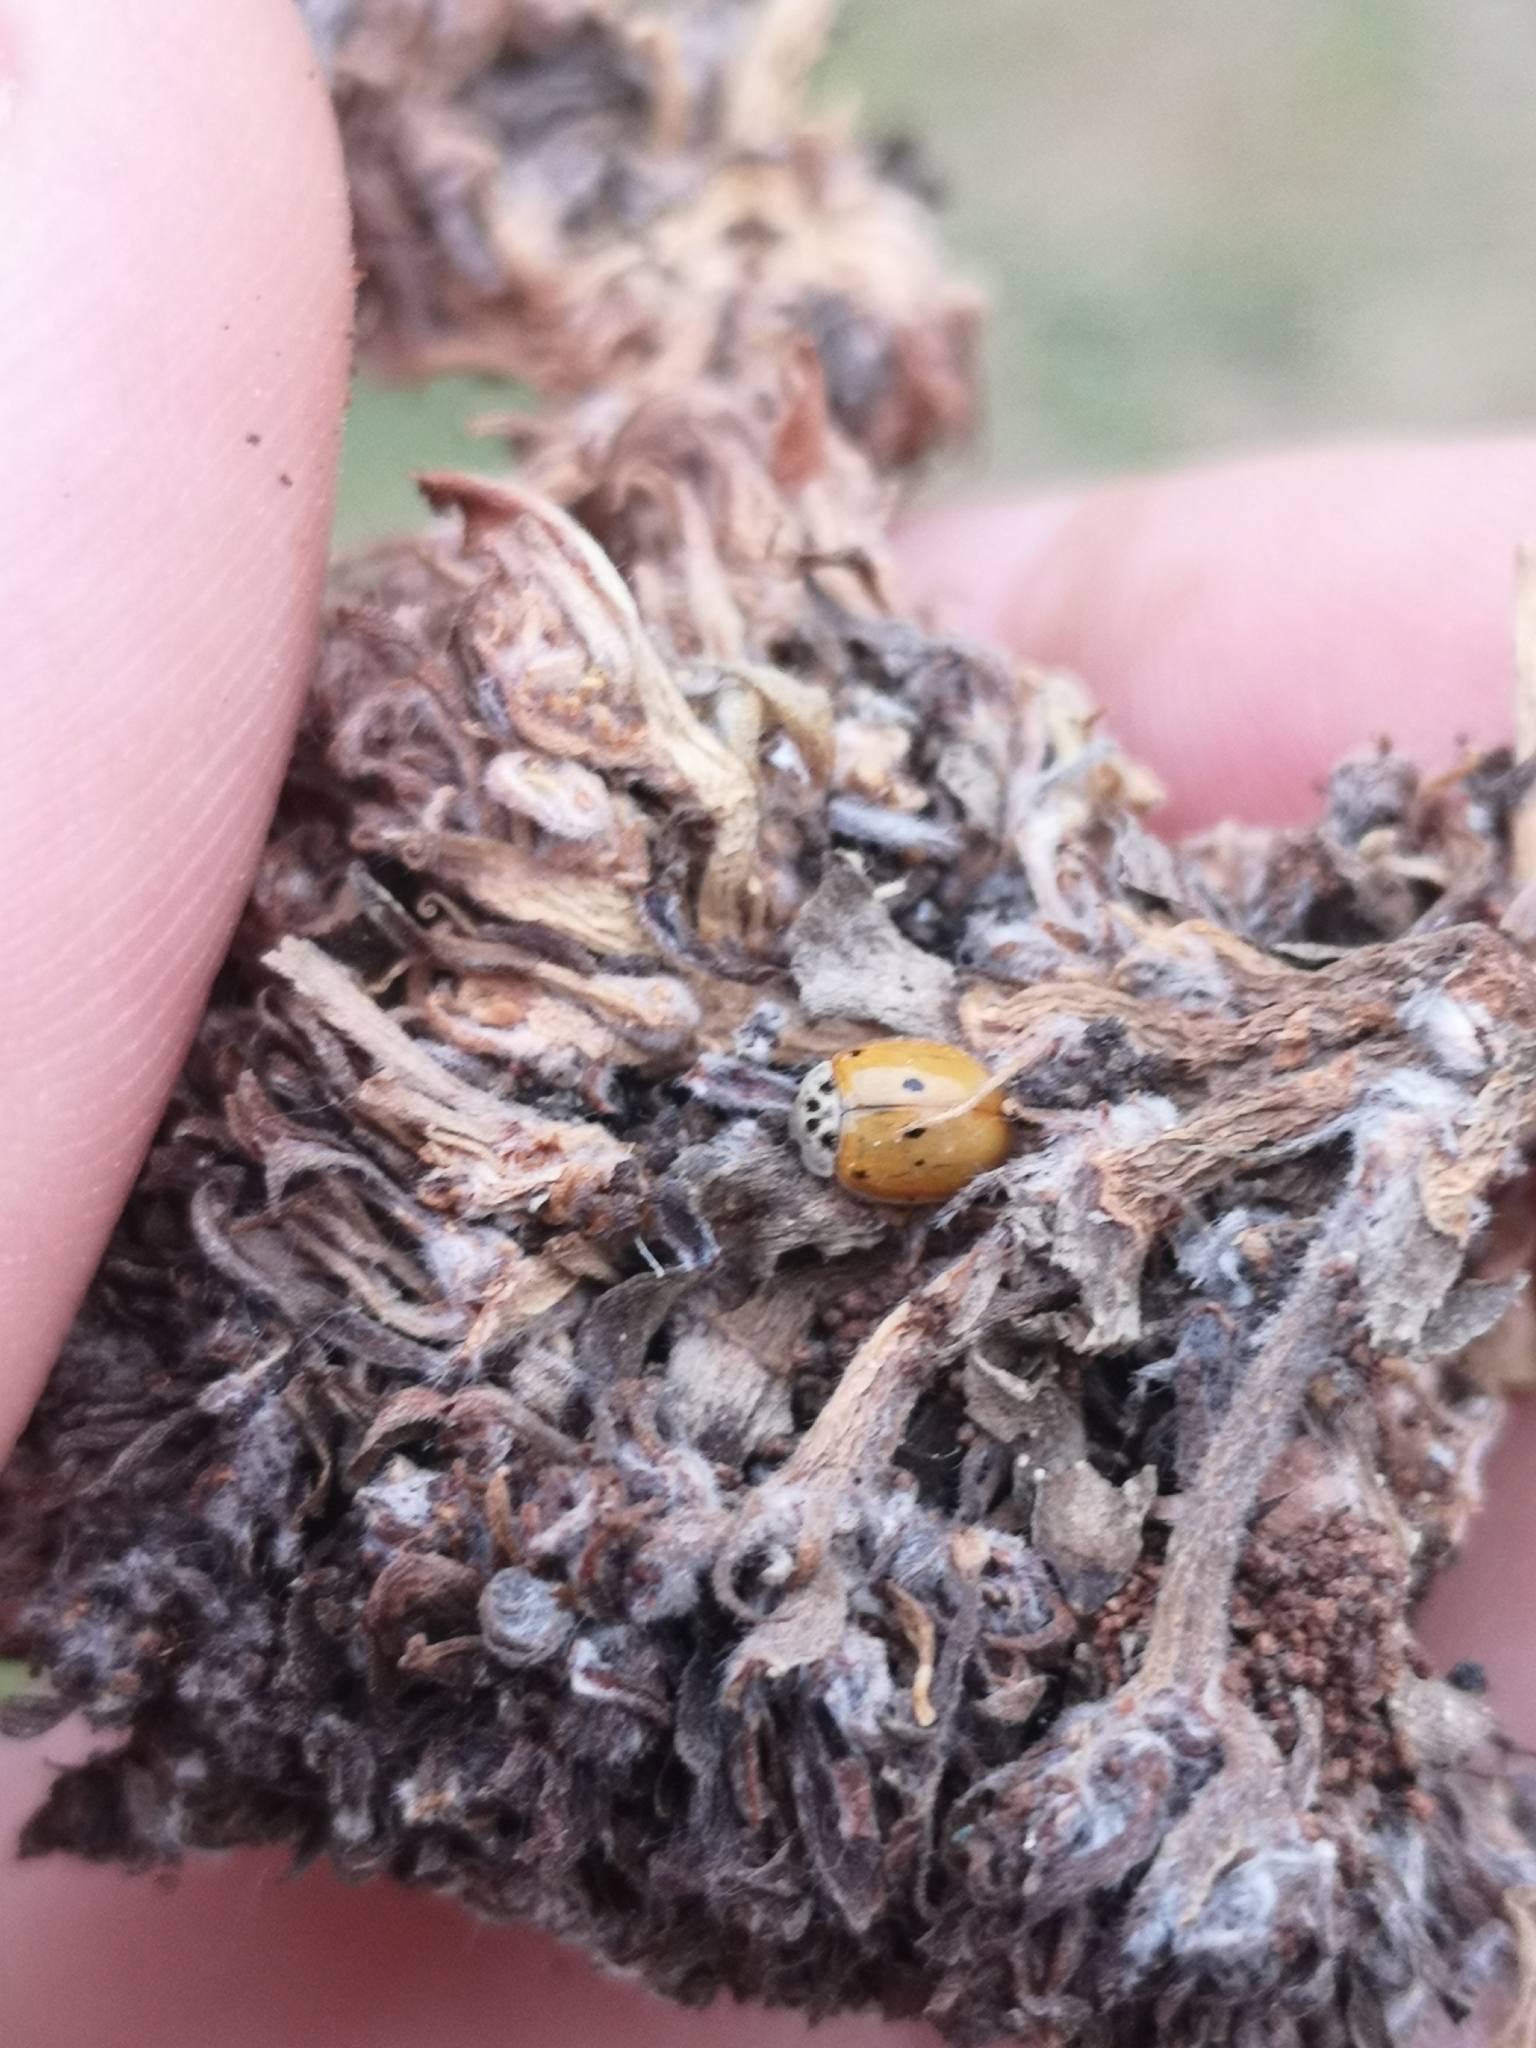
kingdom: Animalia
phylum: Arthropoda
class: Insecta
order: Coleoptera
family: Coccinellidae
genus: Adalia
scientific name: Adalia decempunctata
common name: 10-spot ladybird
